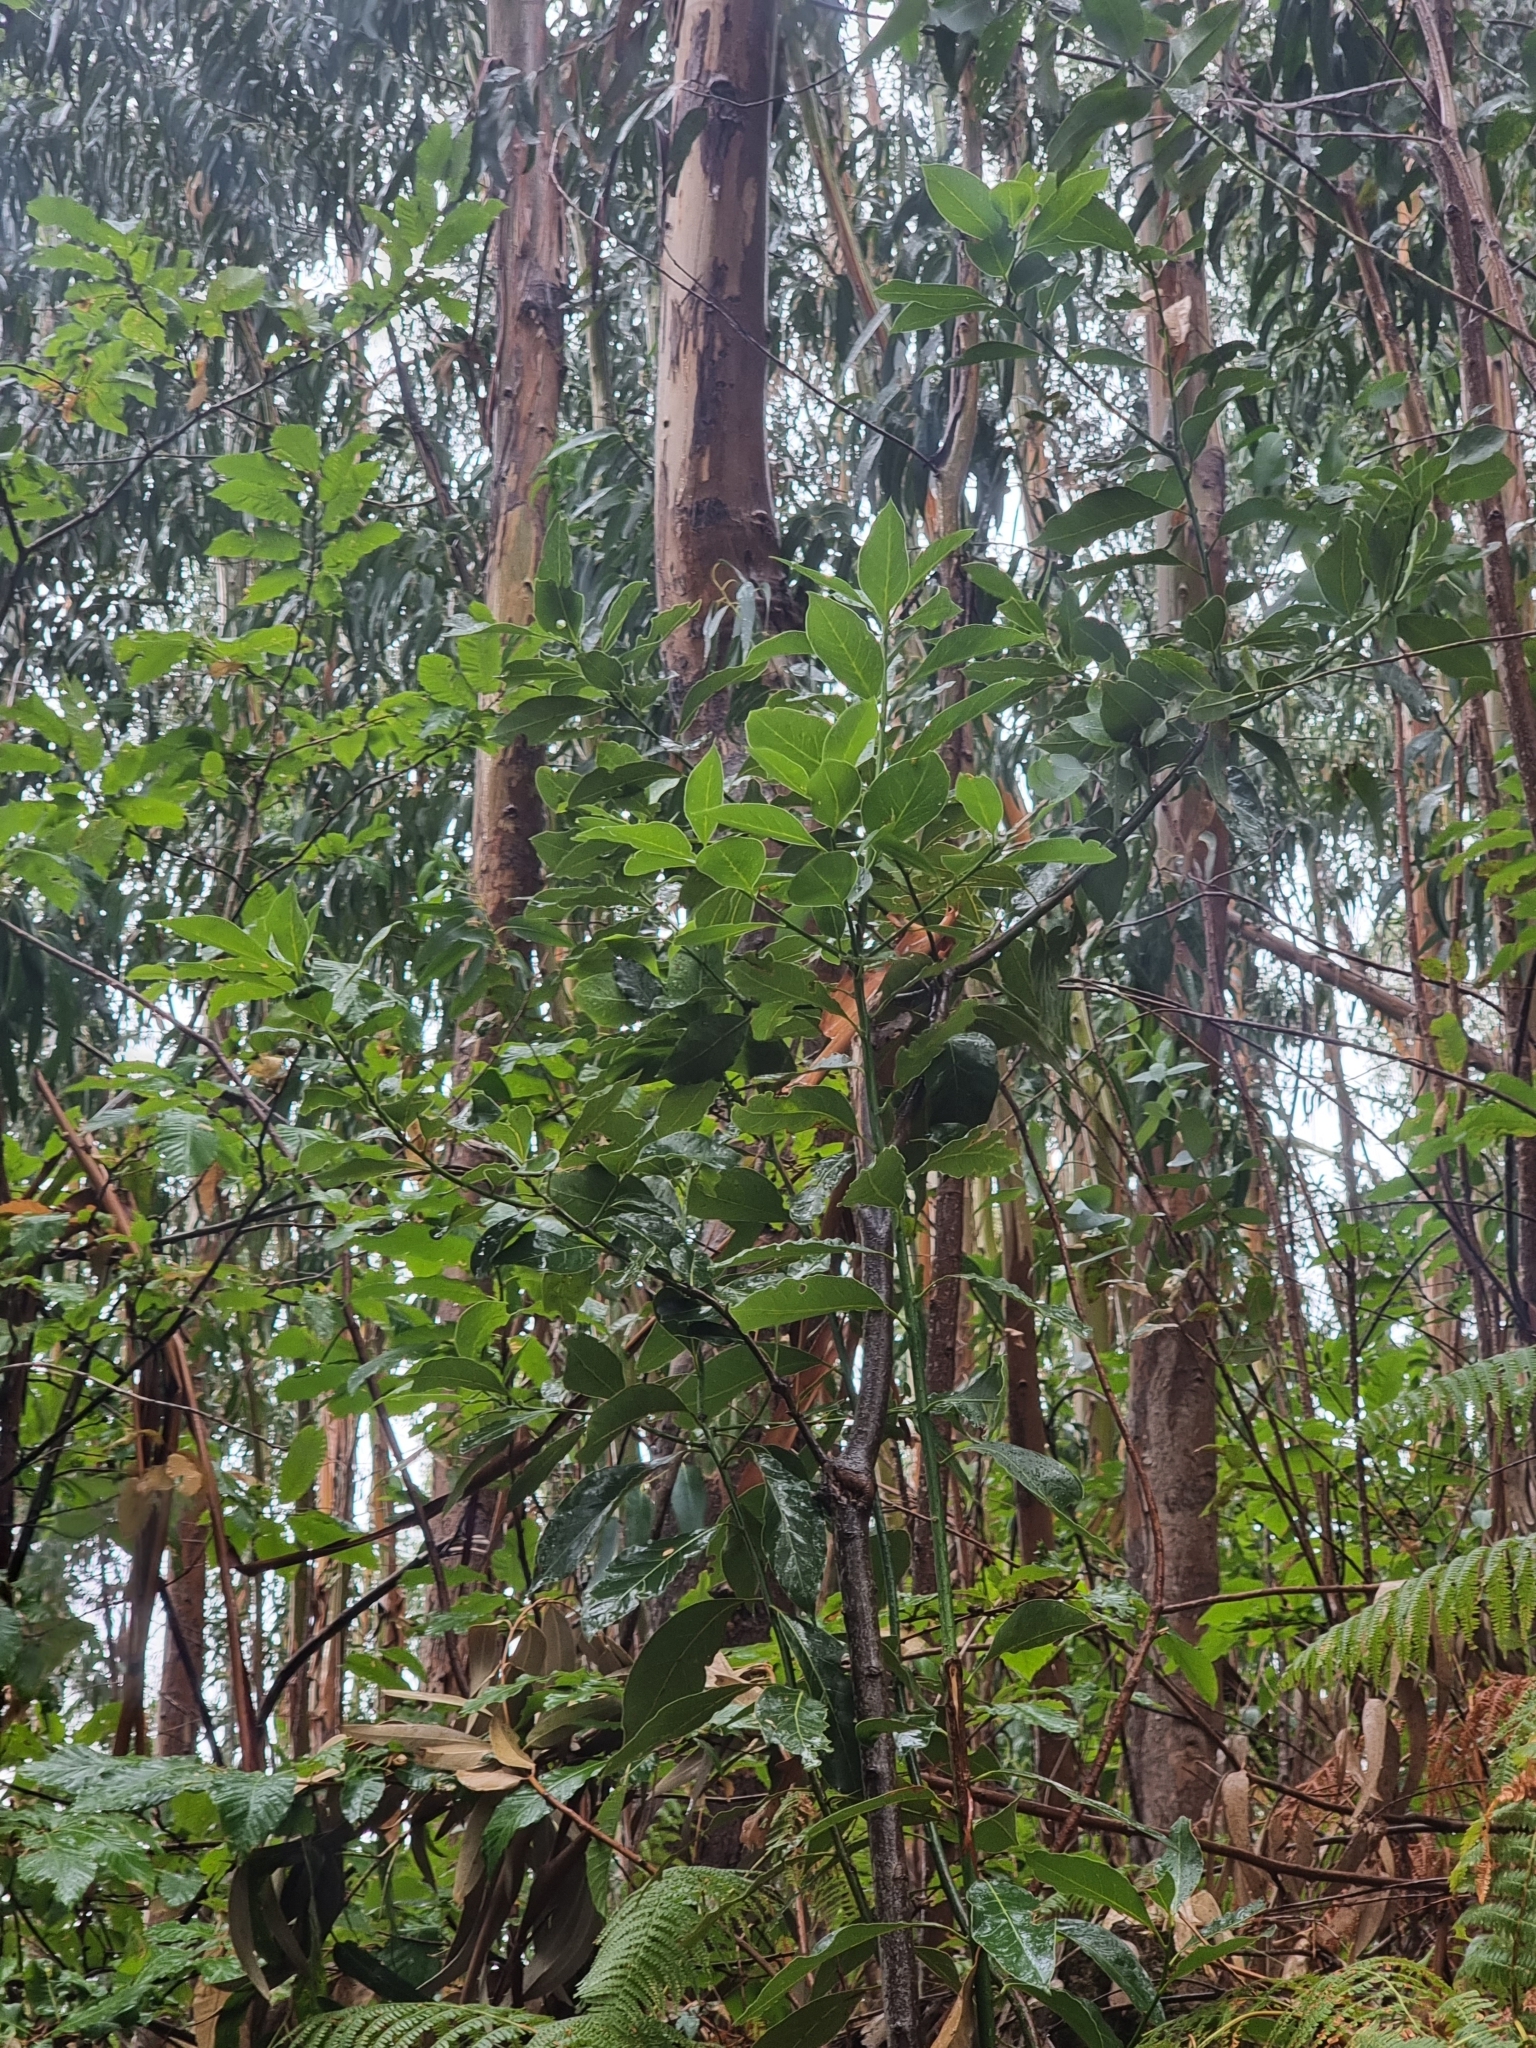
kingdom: Plantae
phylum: Tracheophyta
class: Magnoliopsida
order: Laurales
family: Lauraceae
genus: Laurus
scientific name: Laurus novocanariensis
